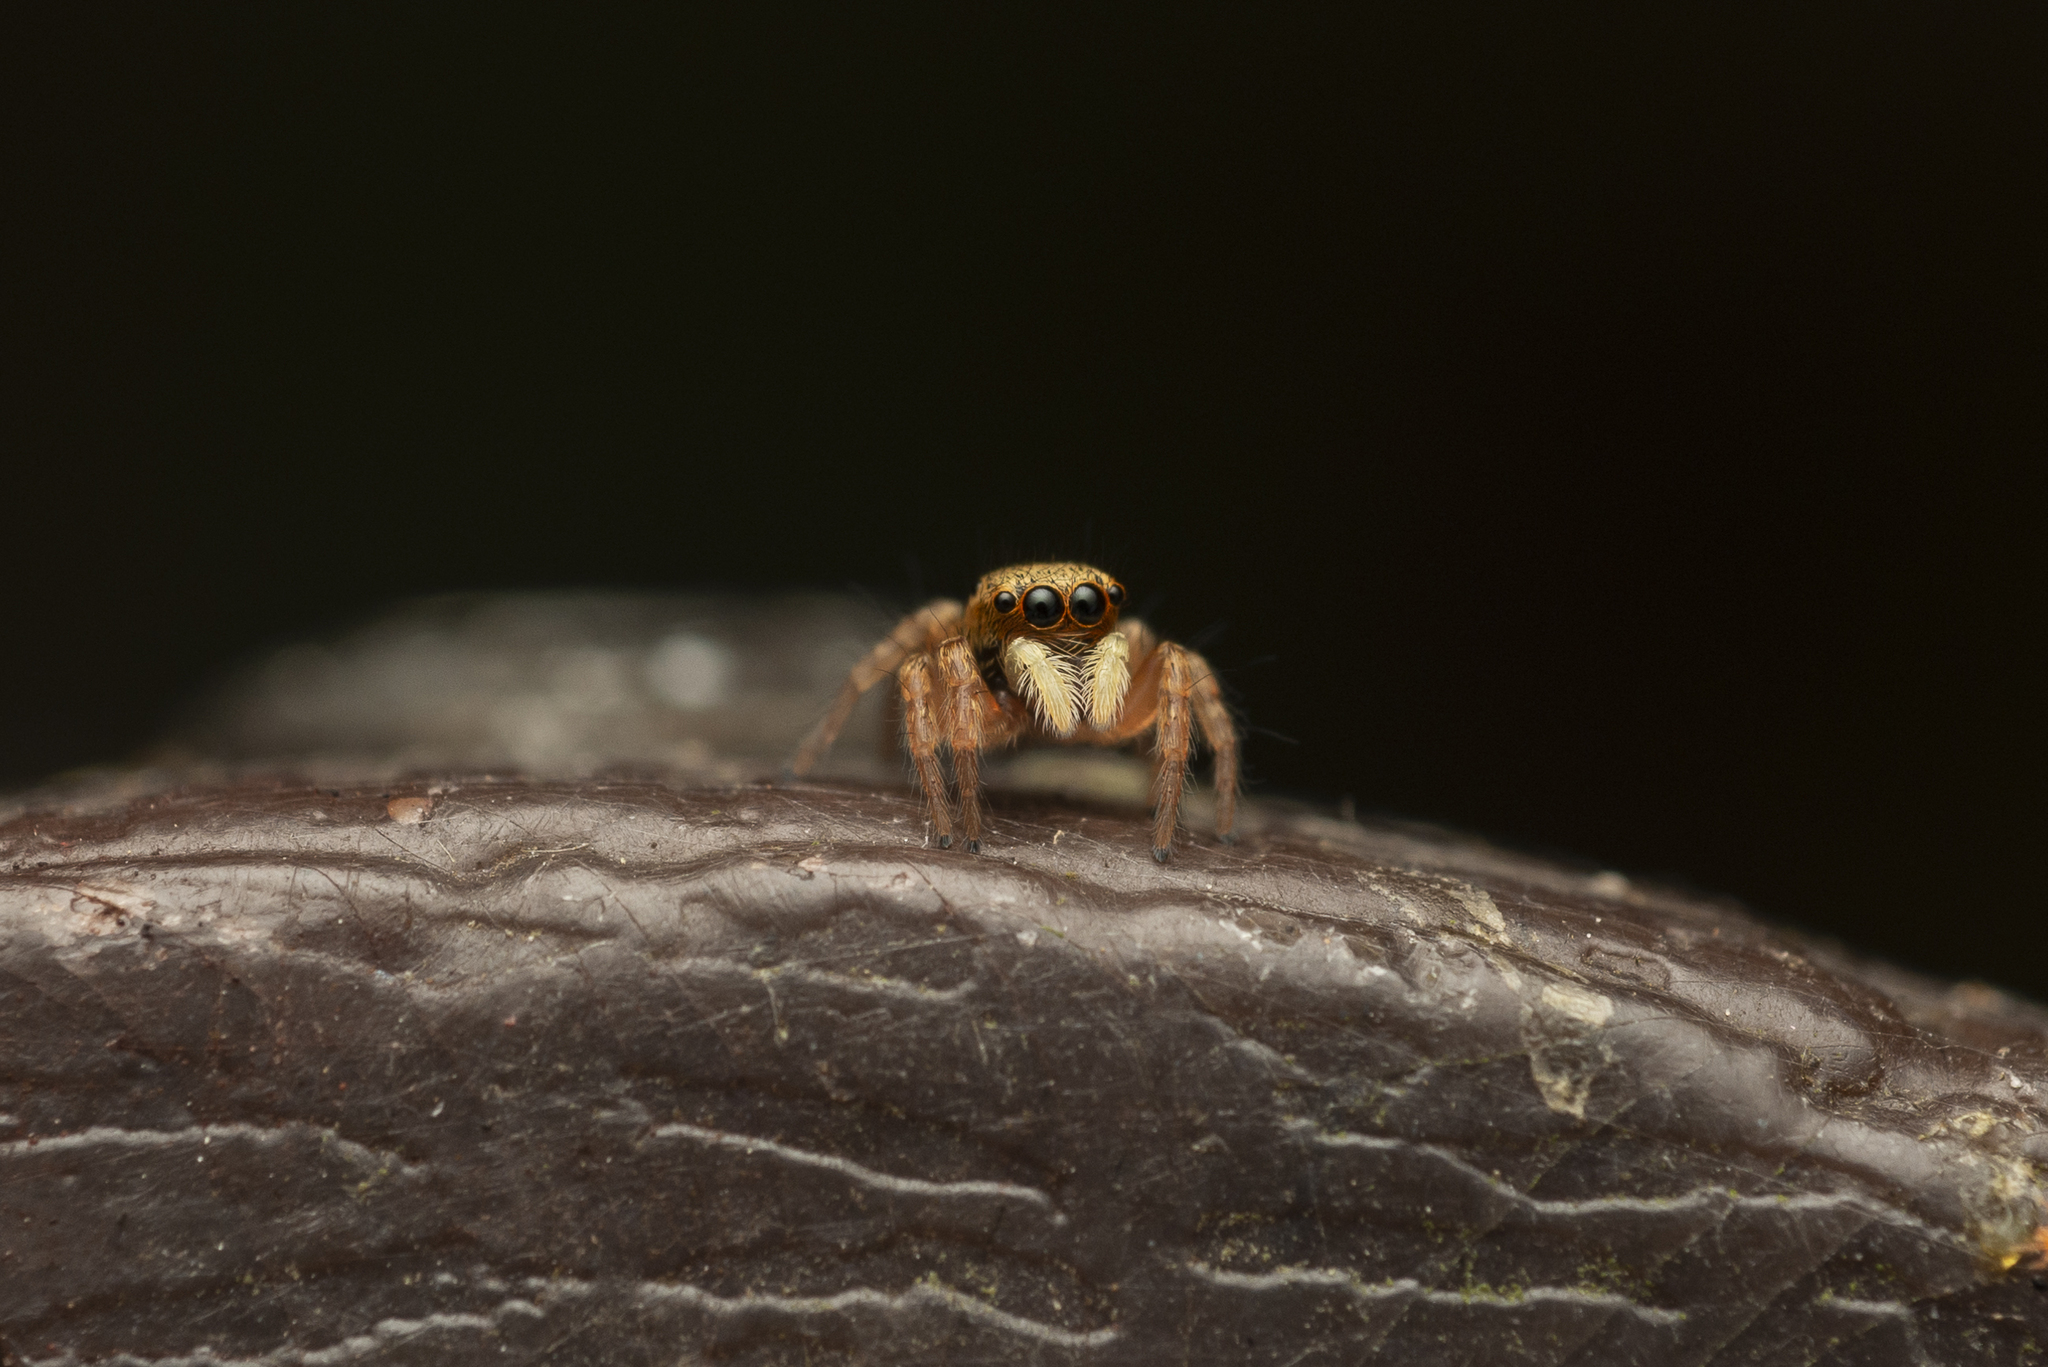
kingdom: Animalia
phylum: Arthropoda
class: Arachnida
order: Araneae
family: Salticidae
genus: Carrhotus
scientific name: Carrhotus sannio
